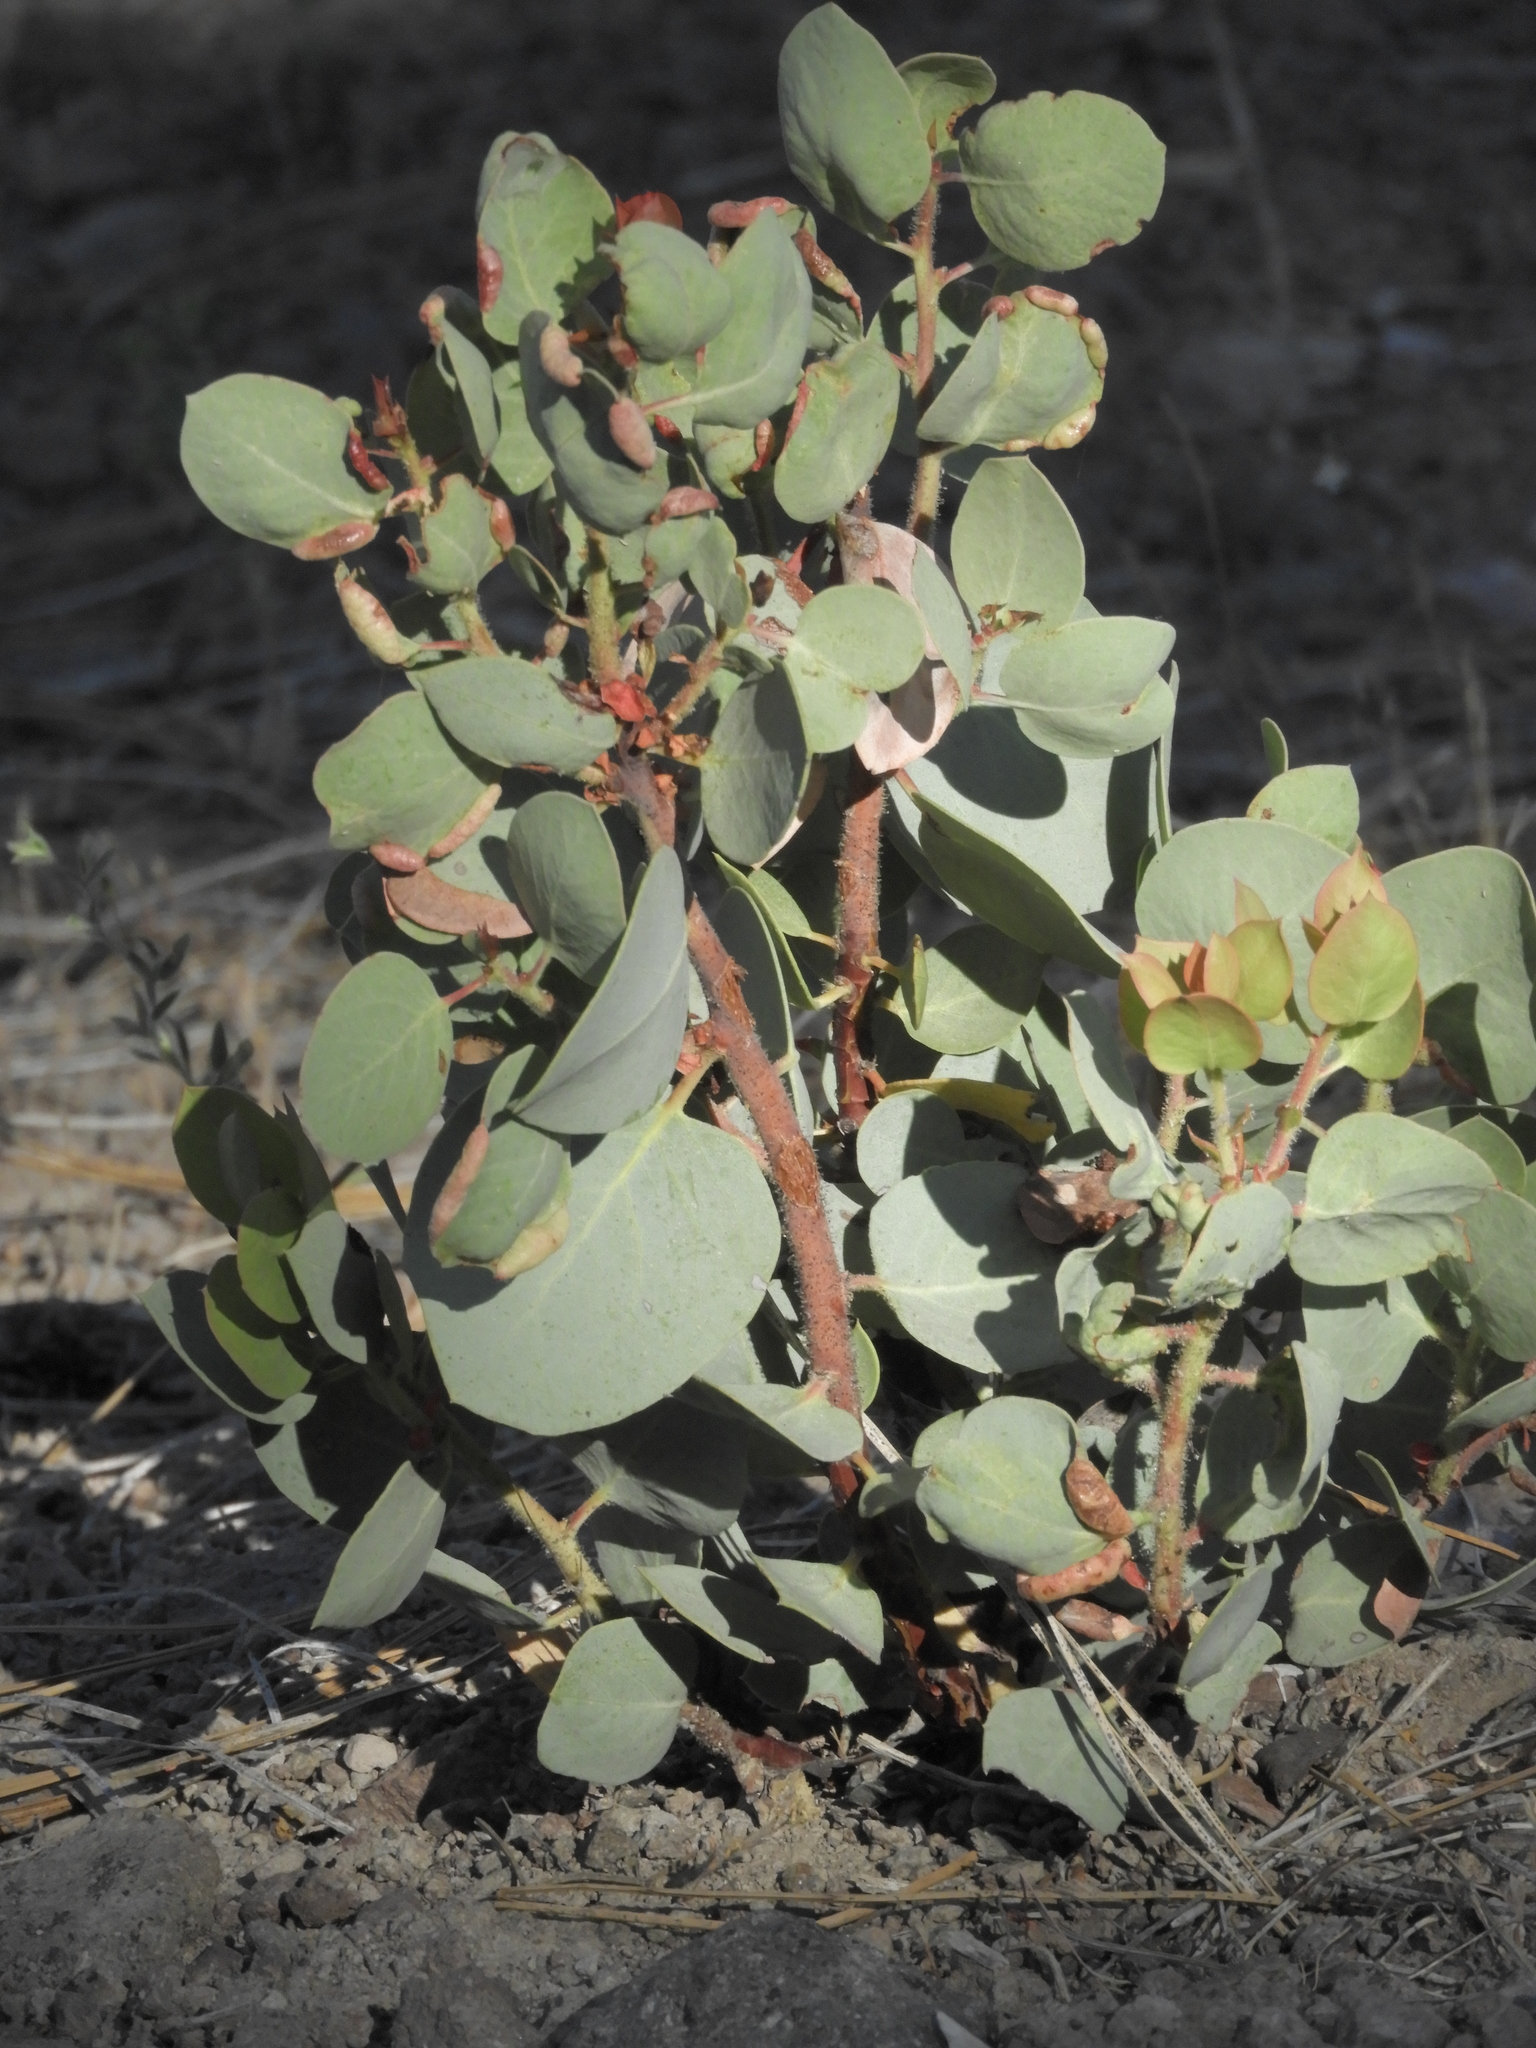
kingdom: Plantae
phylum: Tracheophyta
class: Magnoliopsida
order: Ericales
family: Ericaceae
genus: Arctostaphylos
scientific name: Arctostaphylos viscida
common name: White-leaf manzanita
